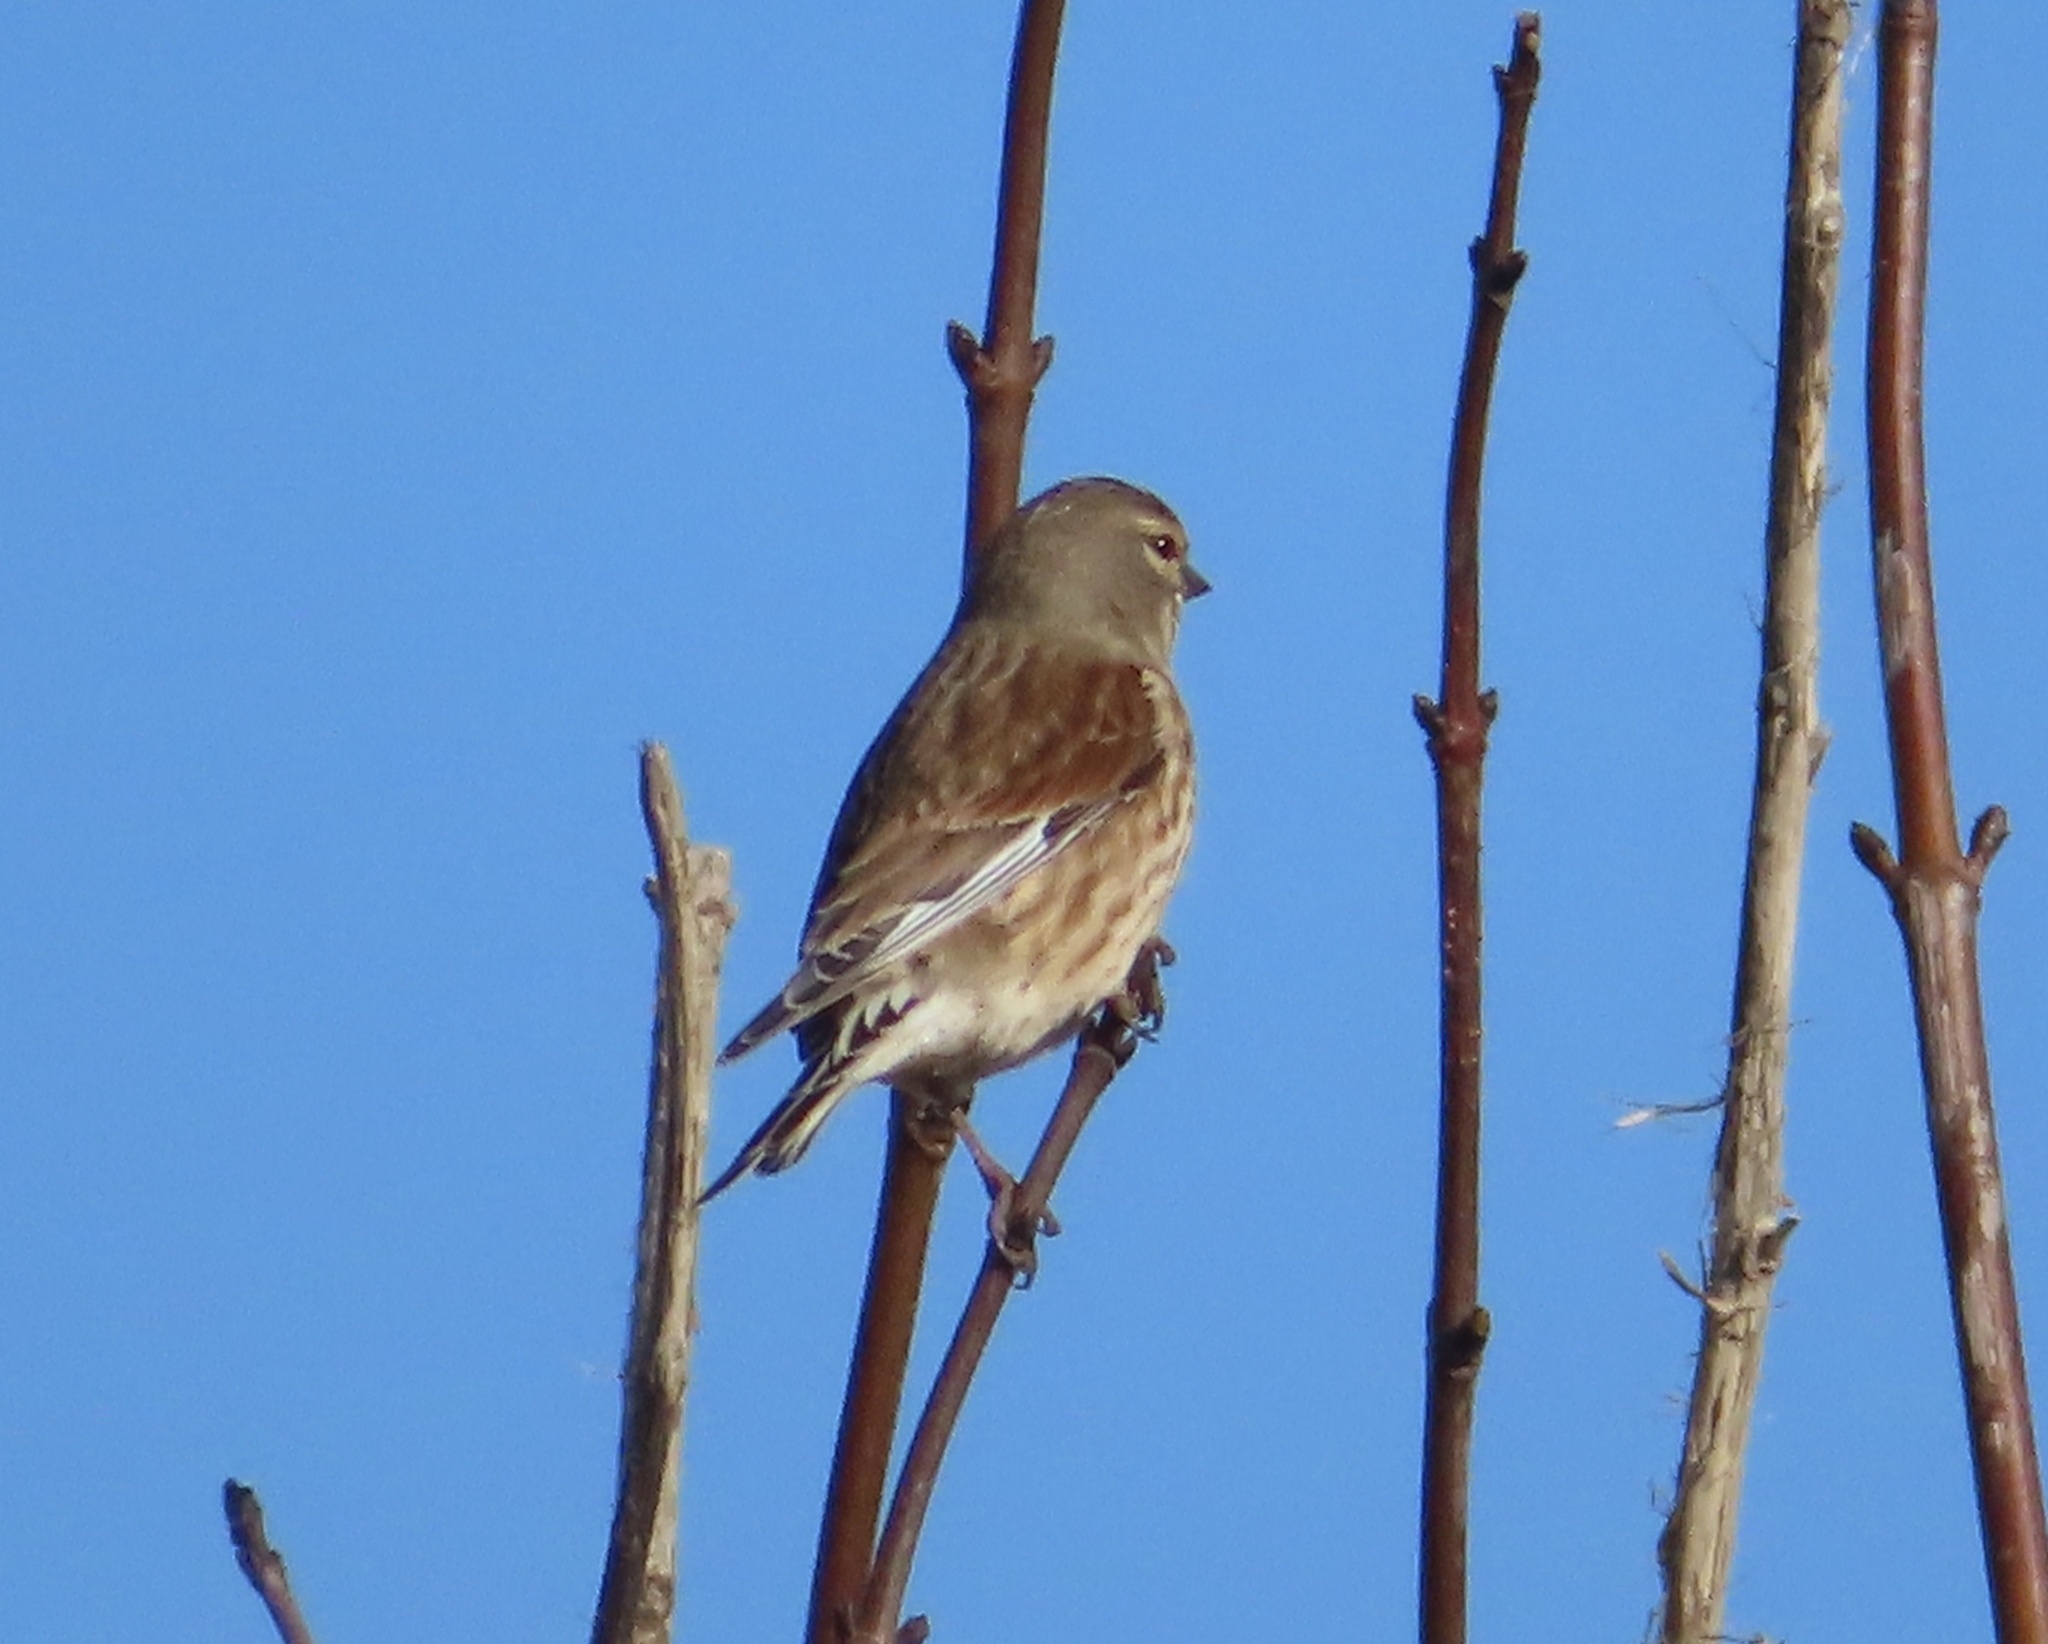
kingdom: Animalia
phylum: Chordata
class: Aves
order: Passeriformes
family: Fringillidae
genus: Linaria
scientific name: Linaria cannabina
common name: Common linnet
